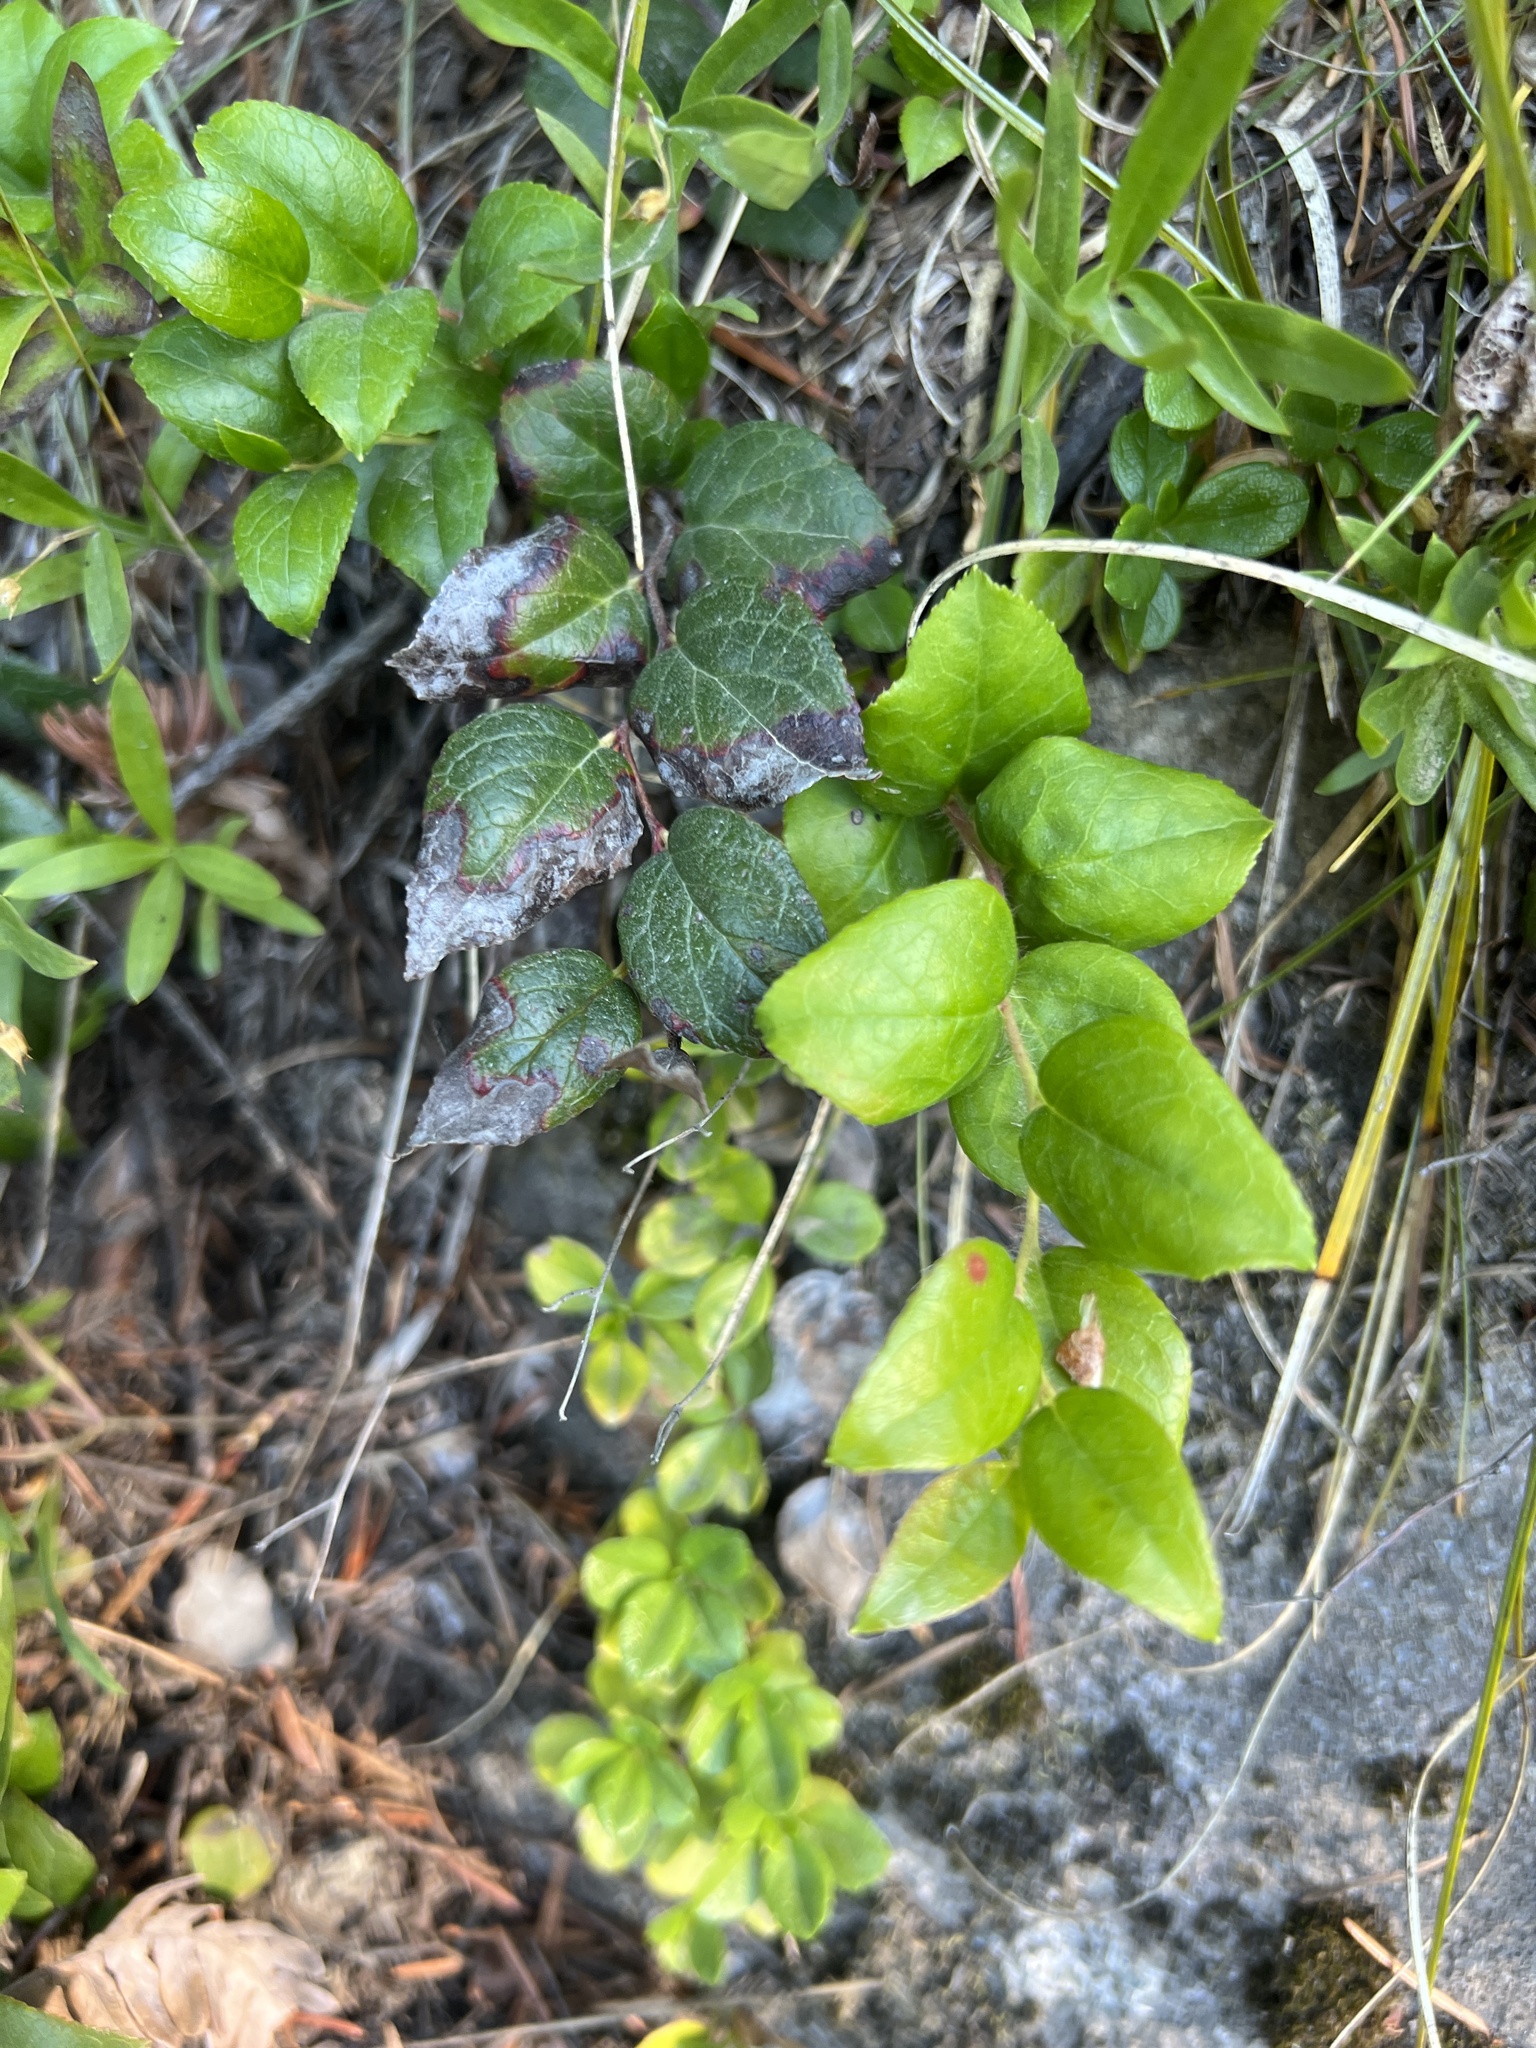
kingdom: Plantae
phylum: Tracheophyta
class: Magnoliopsida
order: Ericales
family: Ericaceae
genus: Gaultheria
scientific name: Gaultheria ovatifolia
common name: Oregon wintergreen
